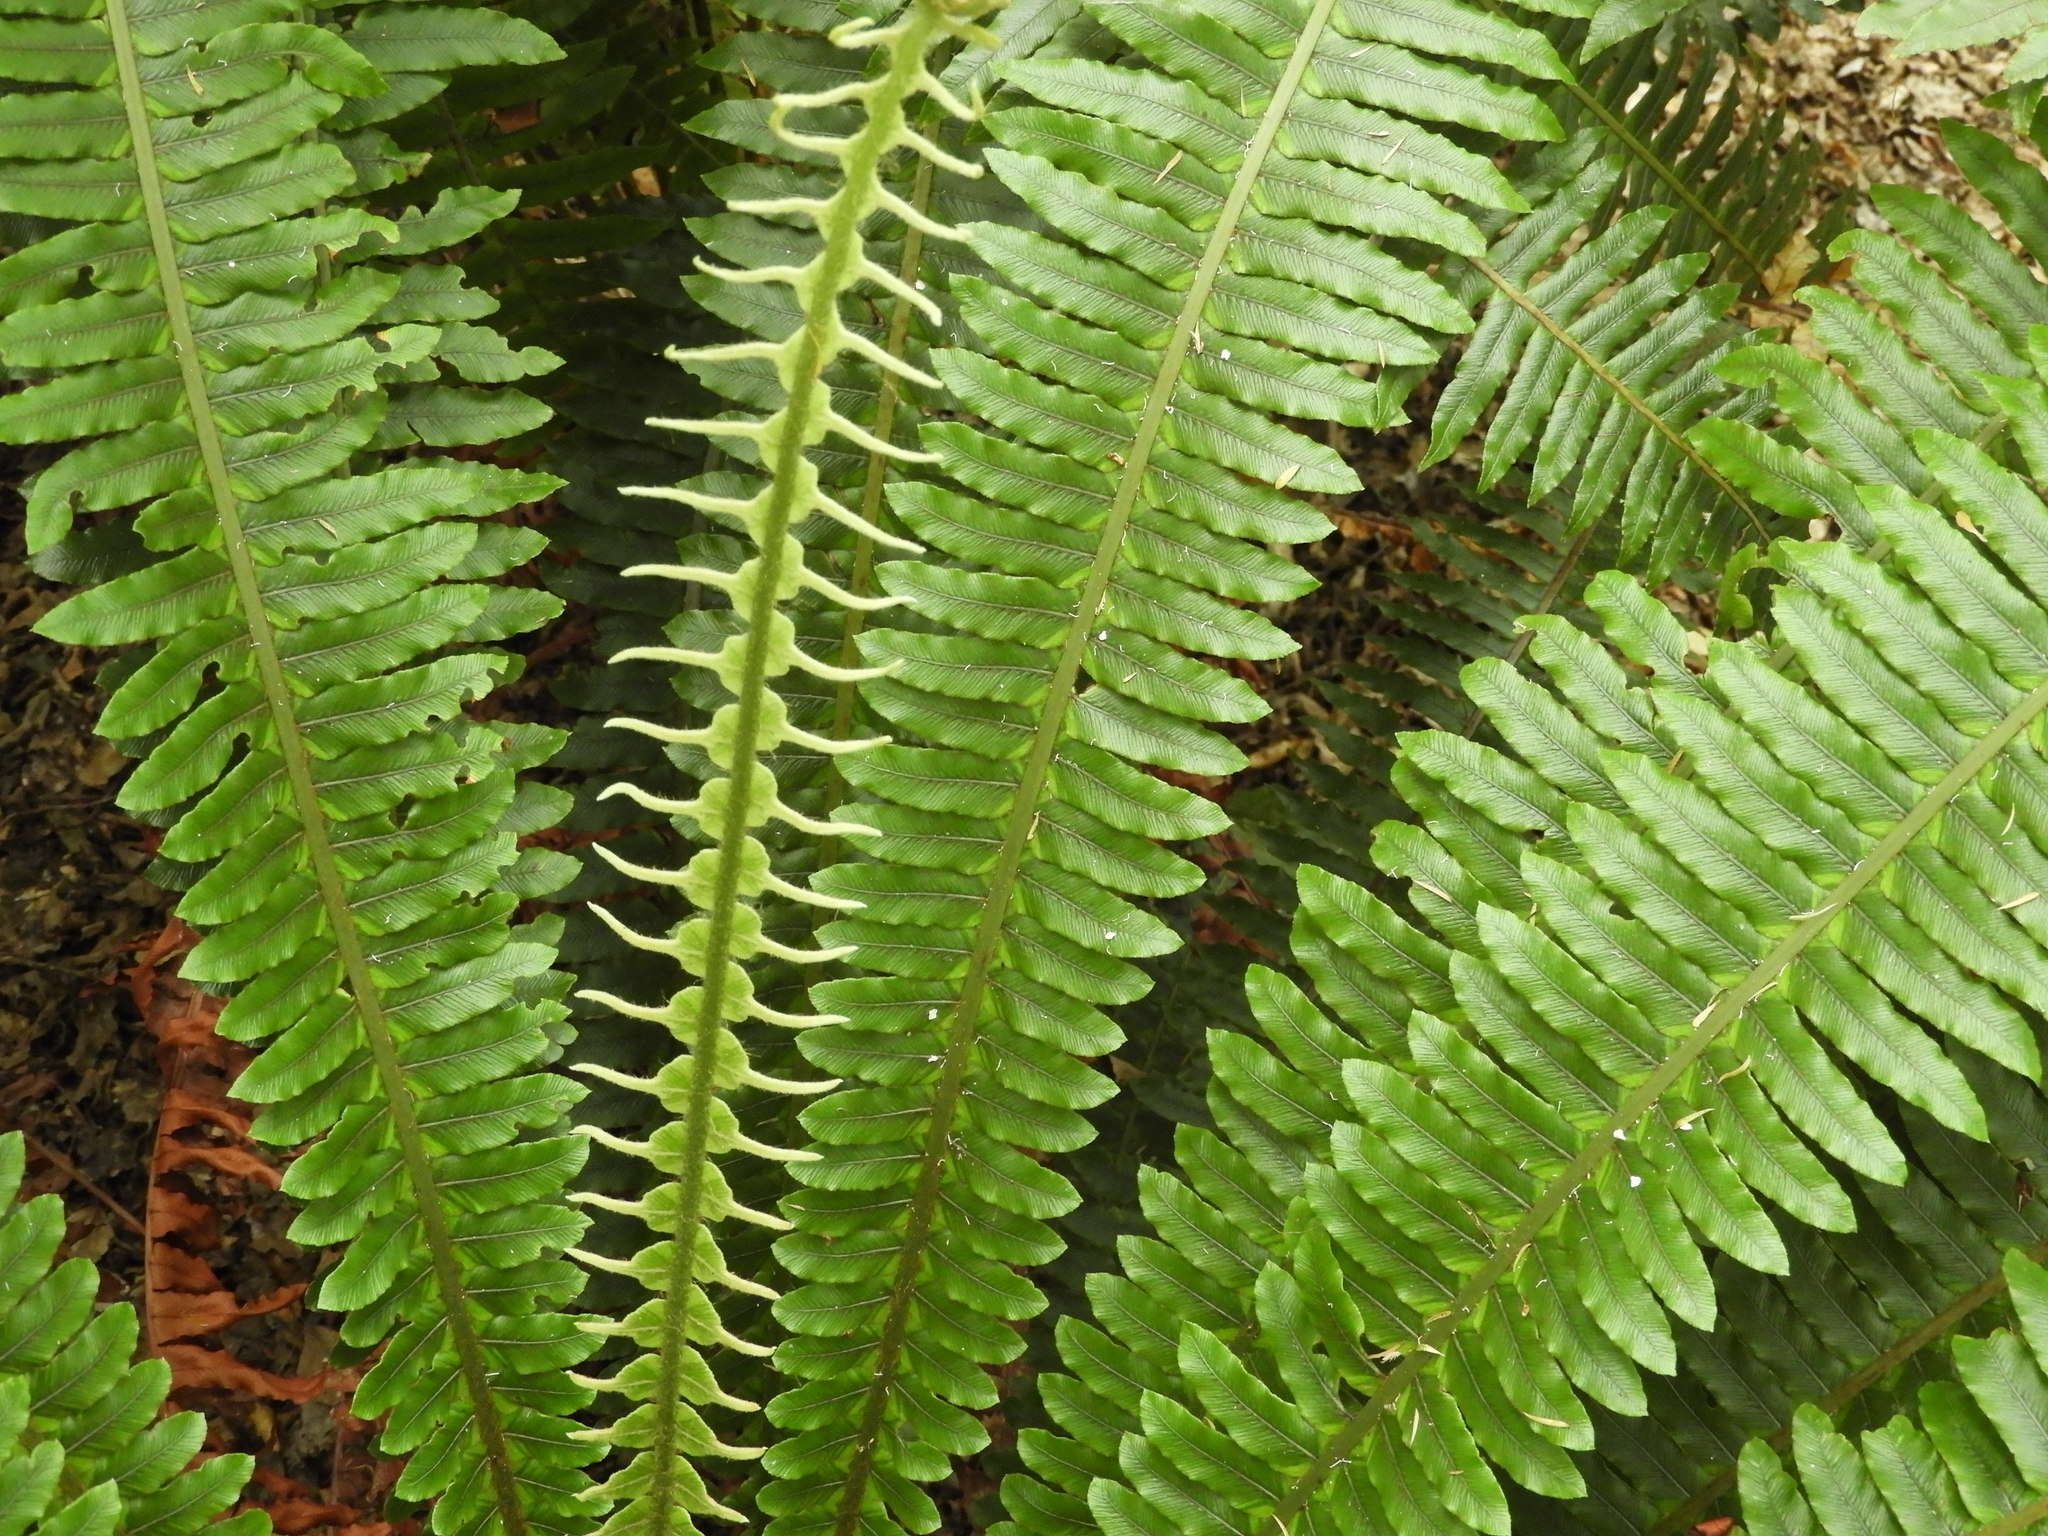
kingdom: Plantae
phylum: Tracheophyta
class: Polypodiopsida
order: Polypodiales
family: Blechnaceae
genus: Lomaria
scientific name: Lomaria discolor
